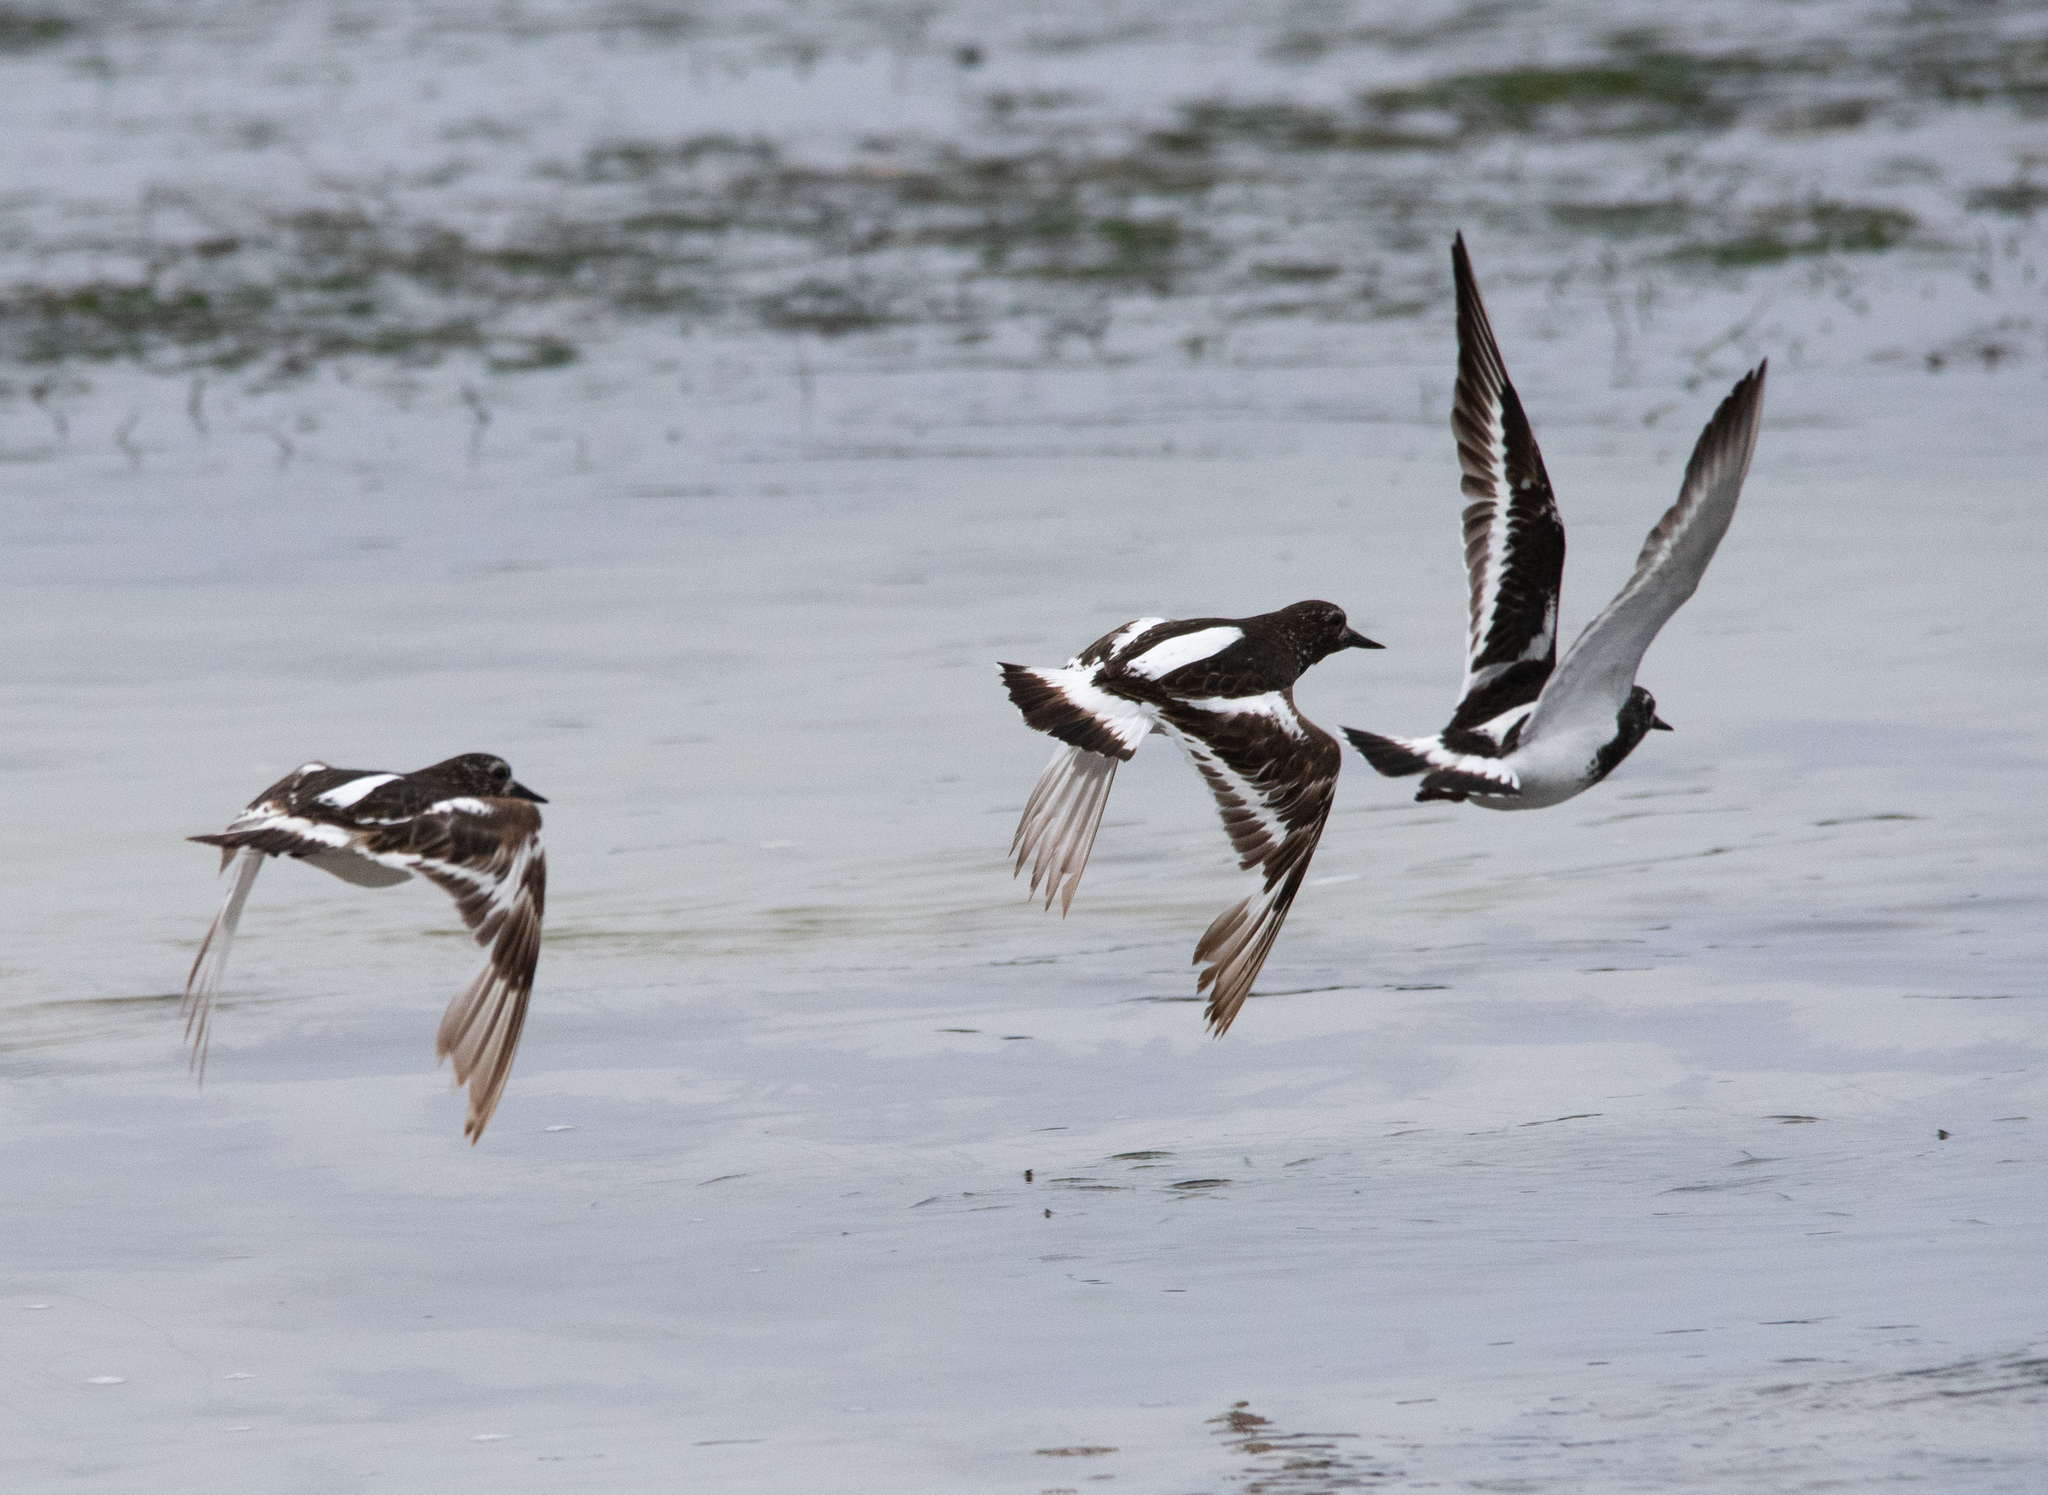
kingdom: Animalia
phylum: Chordata
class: Aves
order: Charadriiformes
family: Scolopacidae
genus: Arenaria
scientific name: Arenaria melanocephala
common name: Black turnstone
